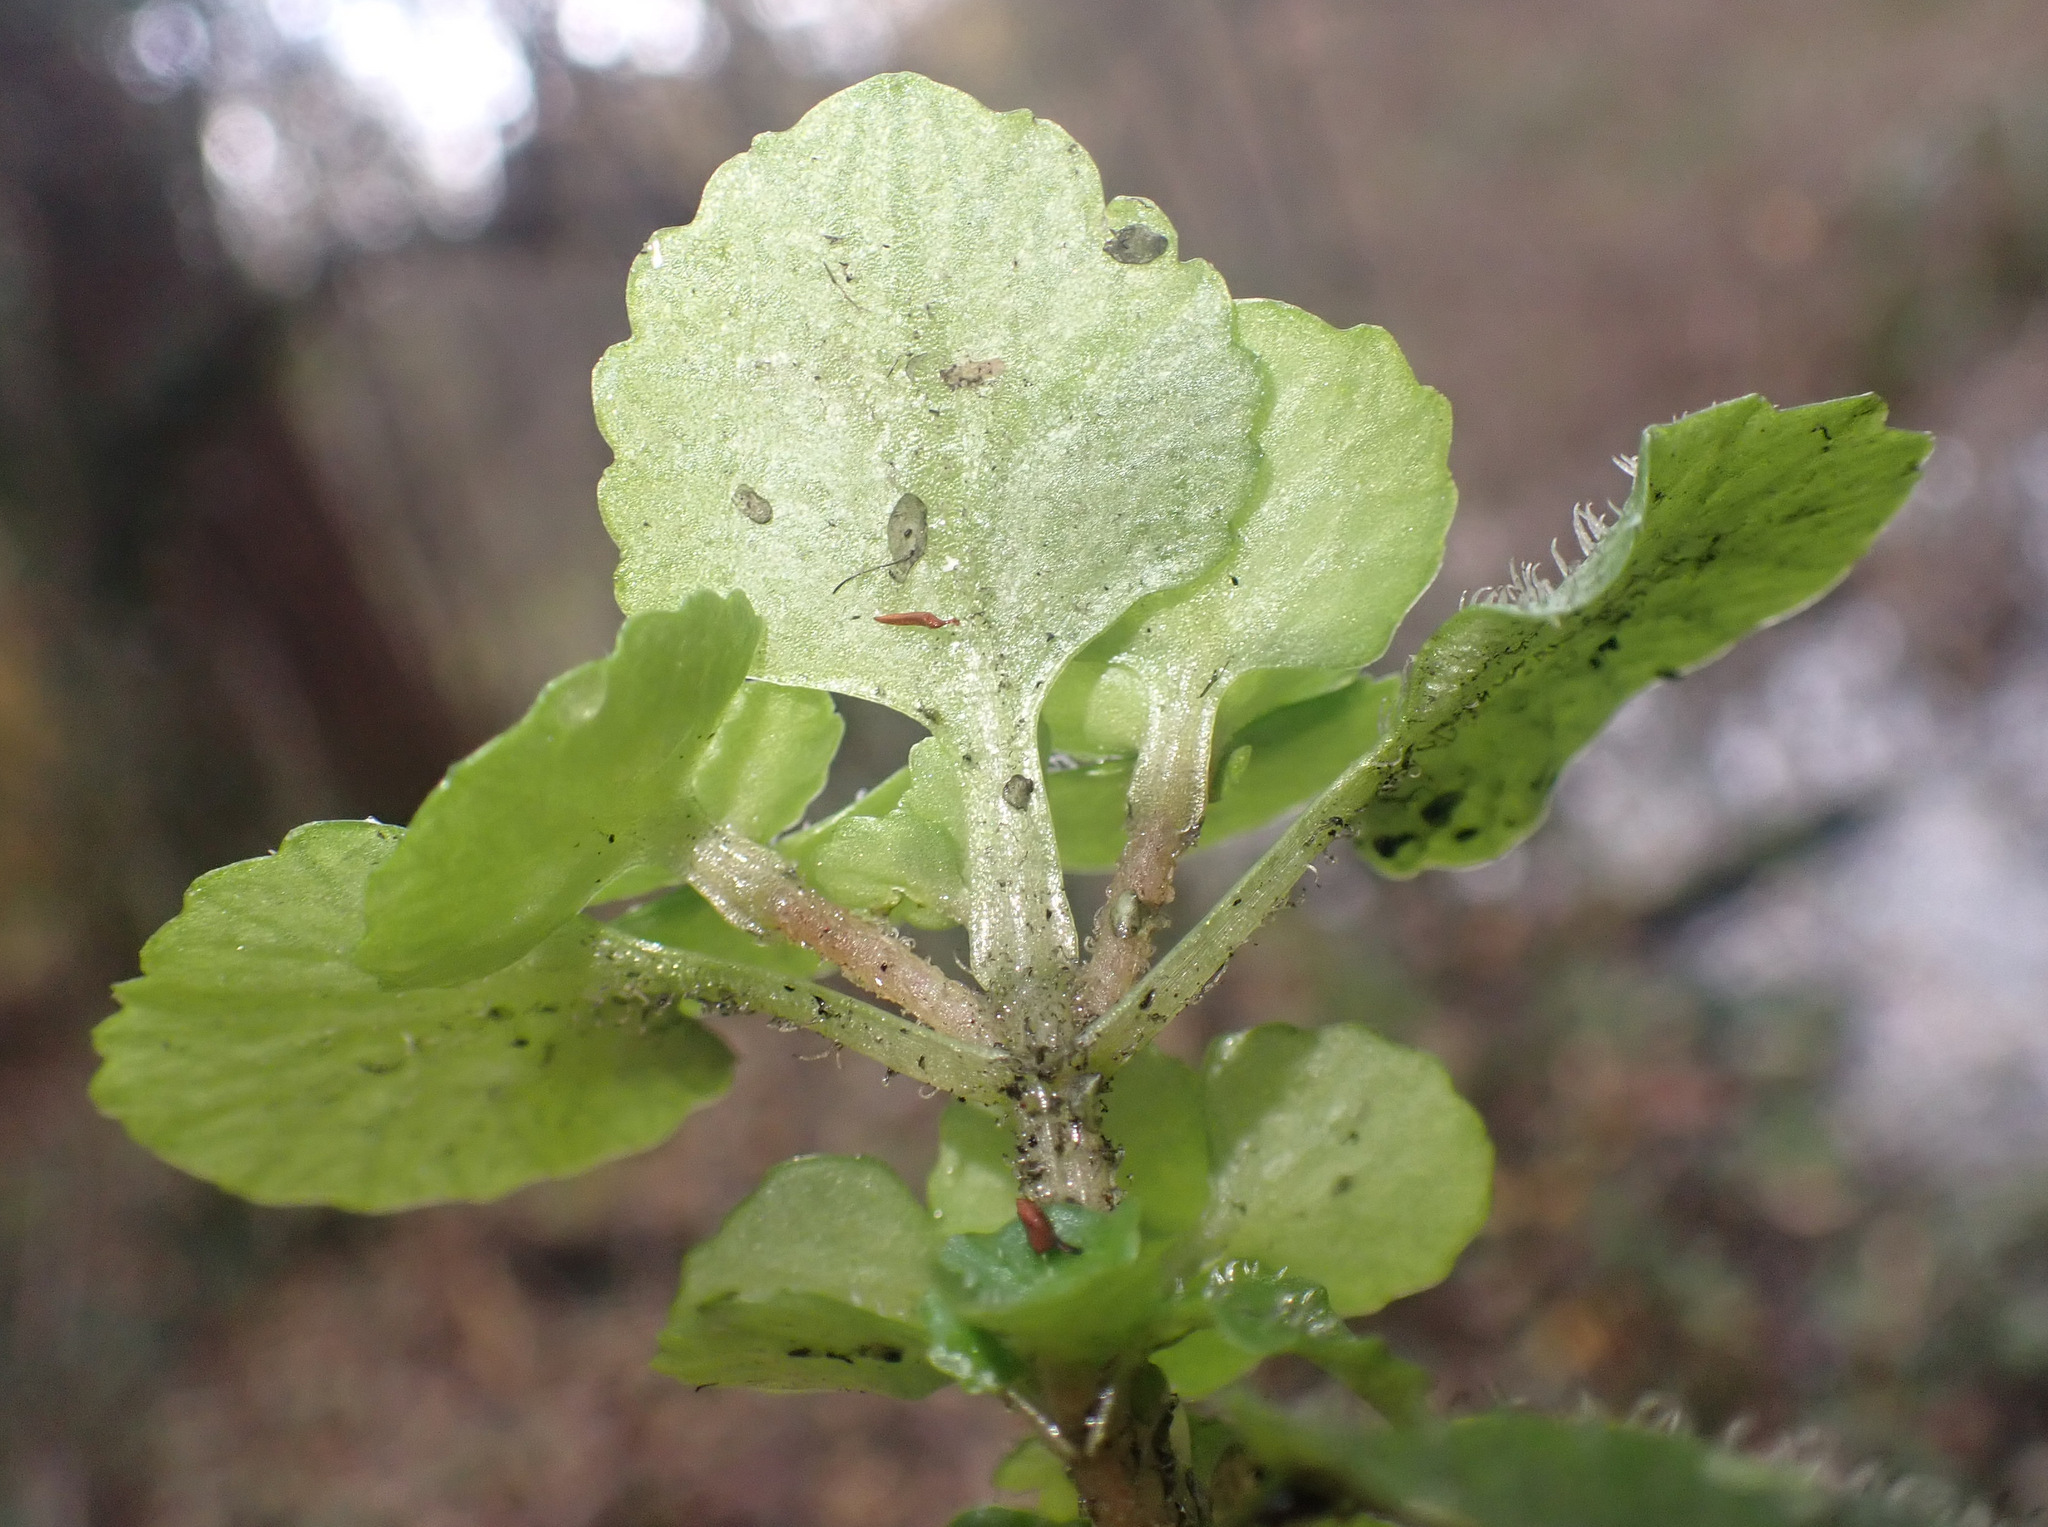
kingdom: Plantae
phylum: Tracheophyta
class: Magnoliopsida
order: Saxifragales
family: Saxifragaceae
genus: Chrysosplenium
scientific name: Chrysosplenium oppositifolium
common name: Opposite-leaved golden-saxifrage
